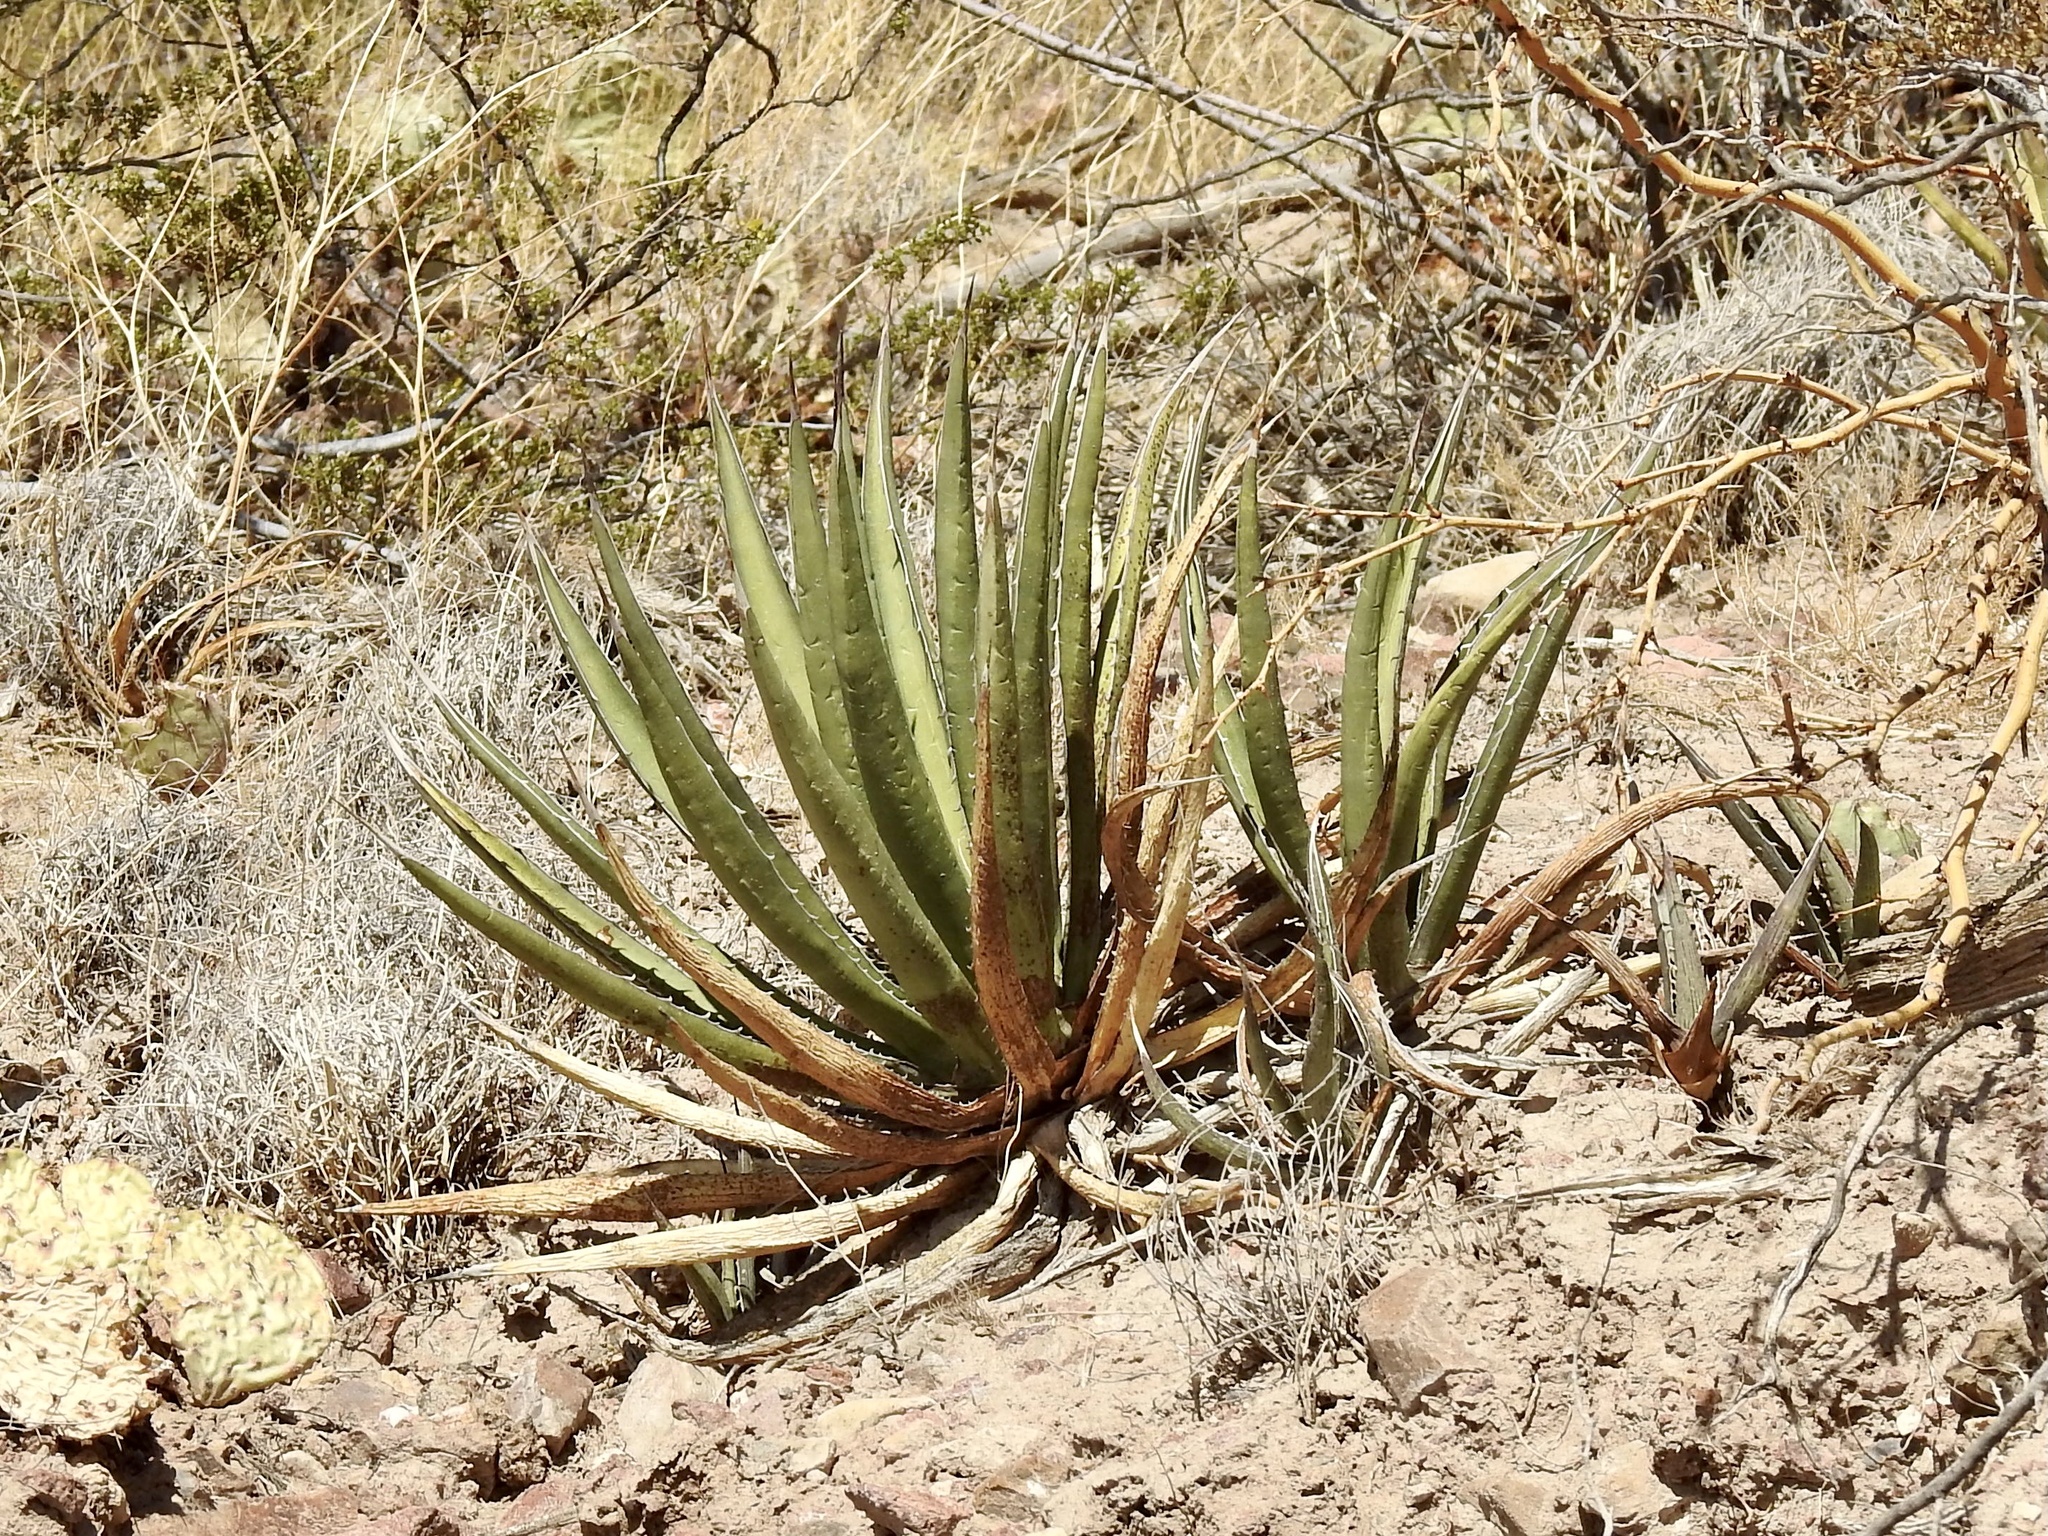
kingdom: Plantae
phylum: Tracheophyta
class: Liliopsida
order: Asparagales
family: Asparagaceae
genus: Agave
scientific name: Agave lechuguilla
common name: Lecheguilla agave
